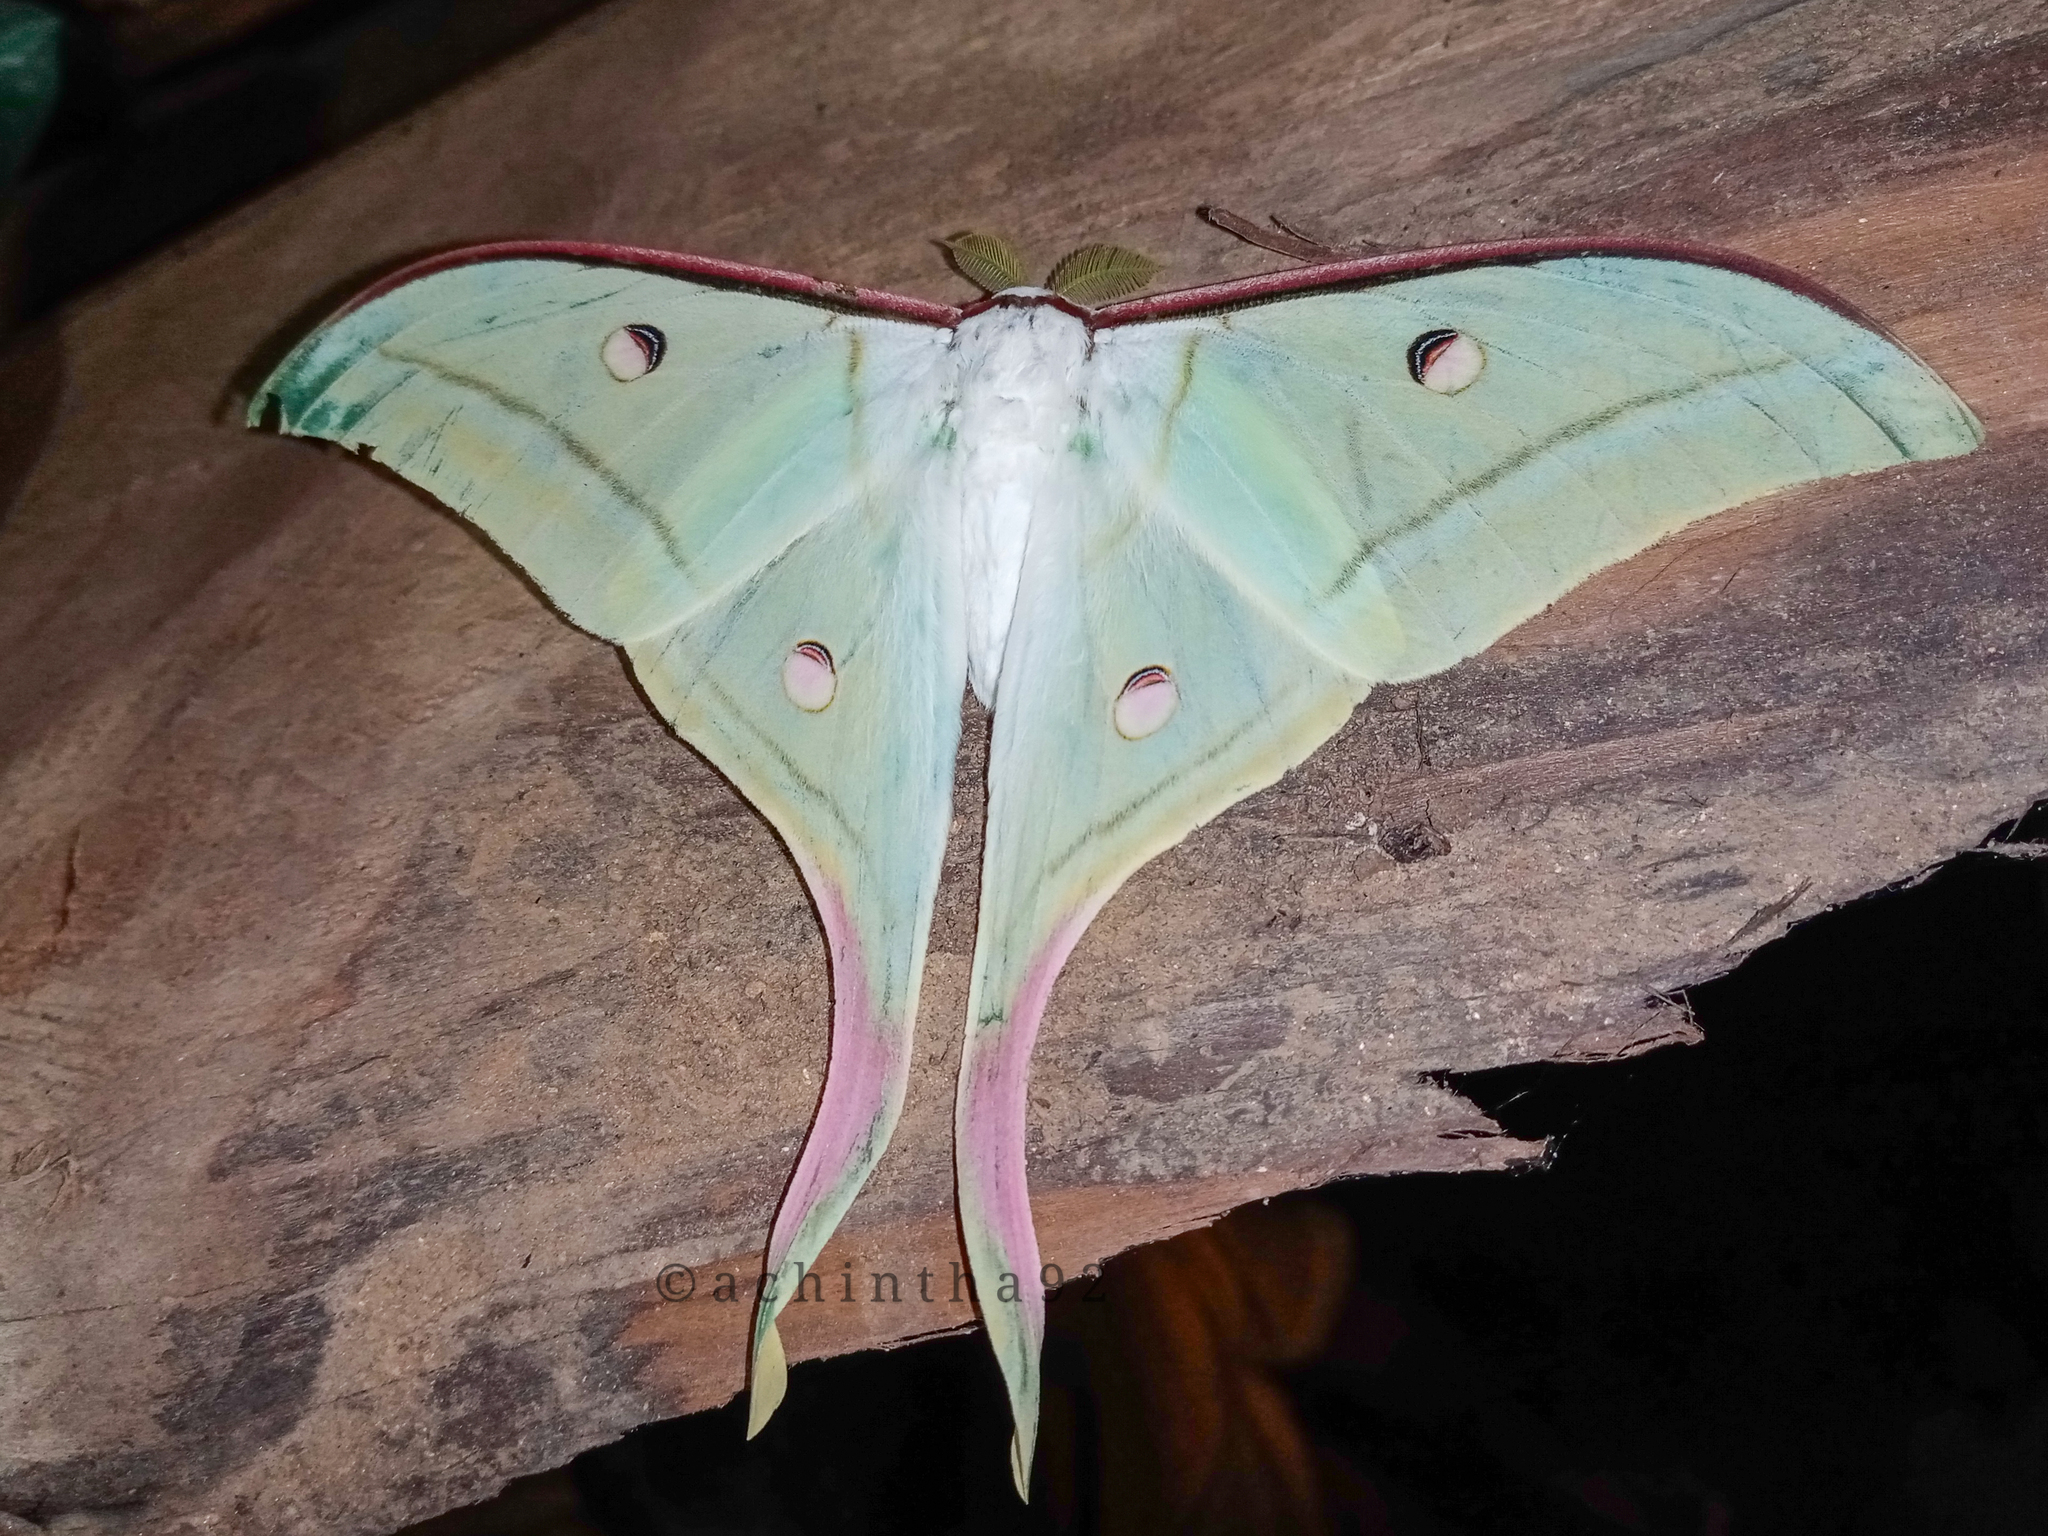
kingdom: Animalia
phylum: Arthropoda
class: Insecta
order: Lepidoptera
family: Saturniidae
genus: Actias
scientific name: Actias selene
